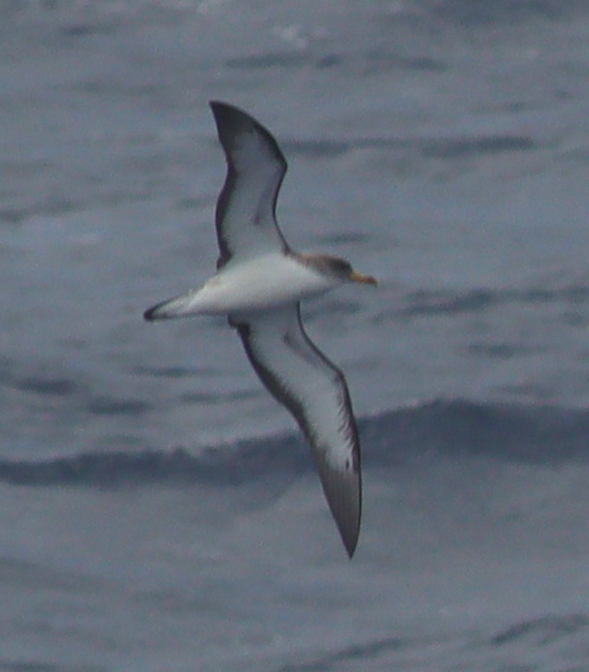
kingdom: Animalia
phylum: Chordata
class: Aves
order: Procellariiformes
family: Procellariidae
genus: Calonectris
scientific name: Calonectris diomedea
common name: Cory's shearwater
